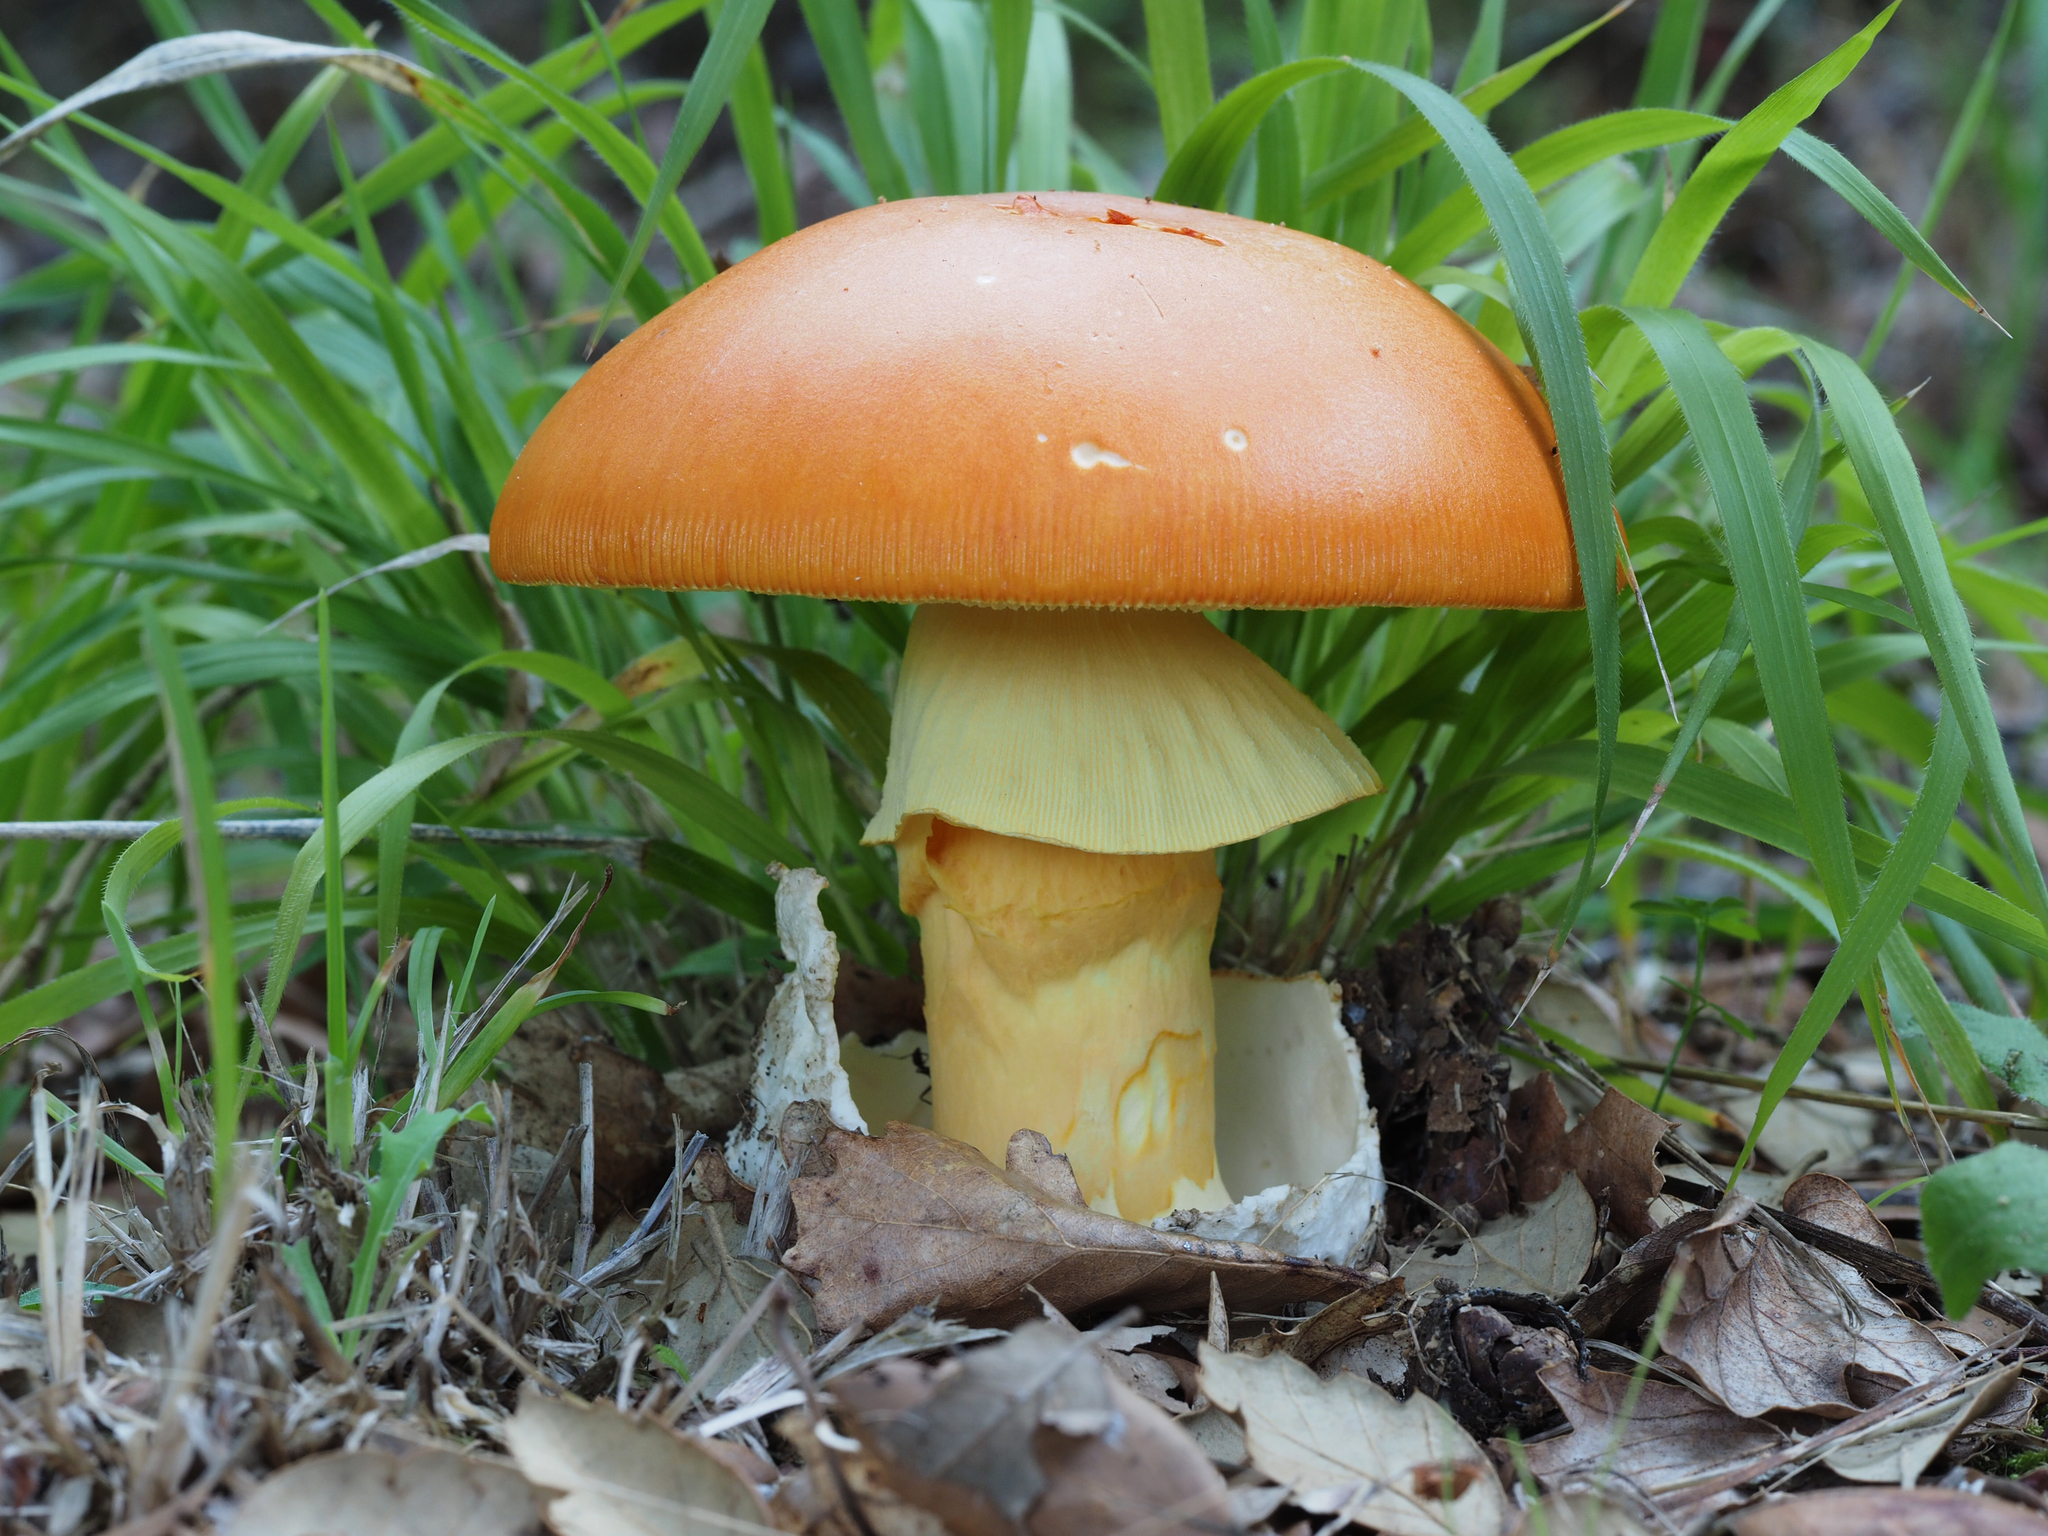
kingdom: Fungi
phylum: Basidiomycota
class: Agaricomycetes
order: Agaricales
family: Amanitaceae
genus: Amanita
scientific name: Amanita caesarea
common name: Caesar's amanita
